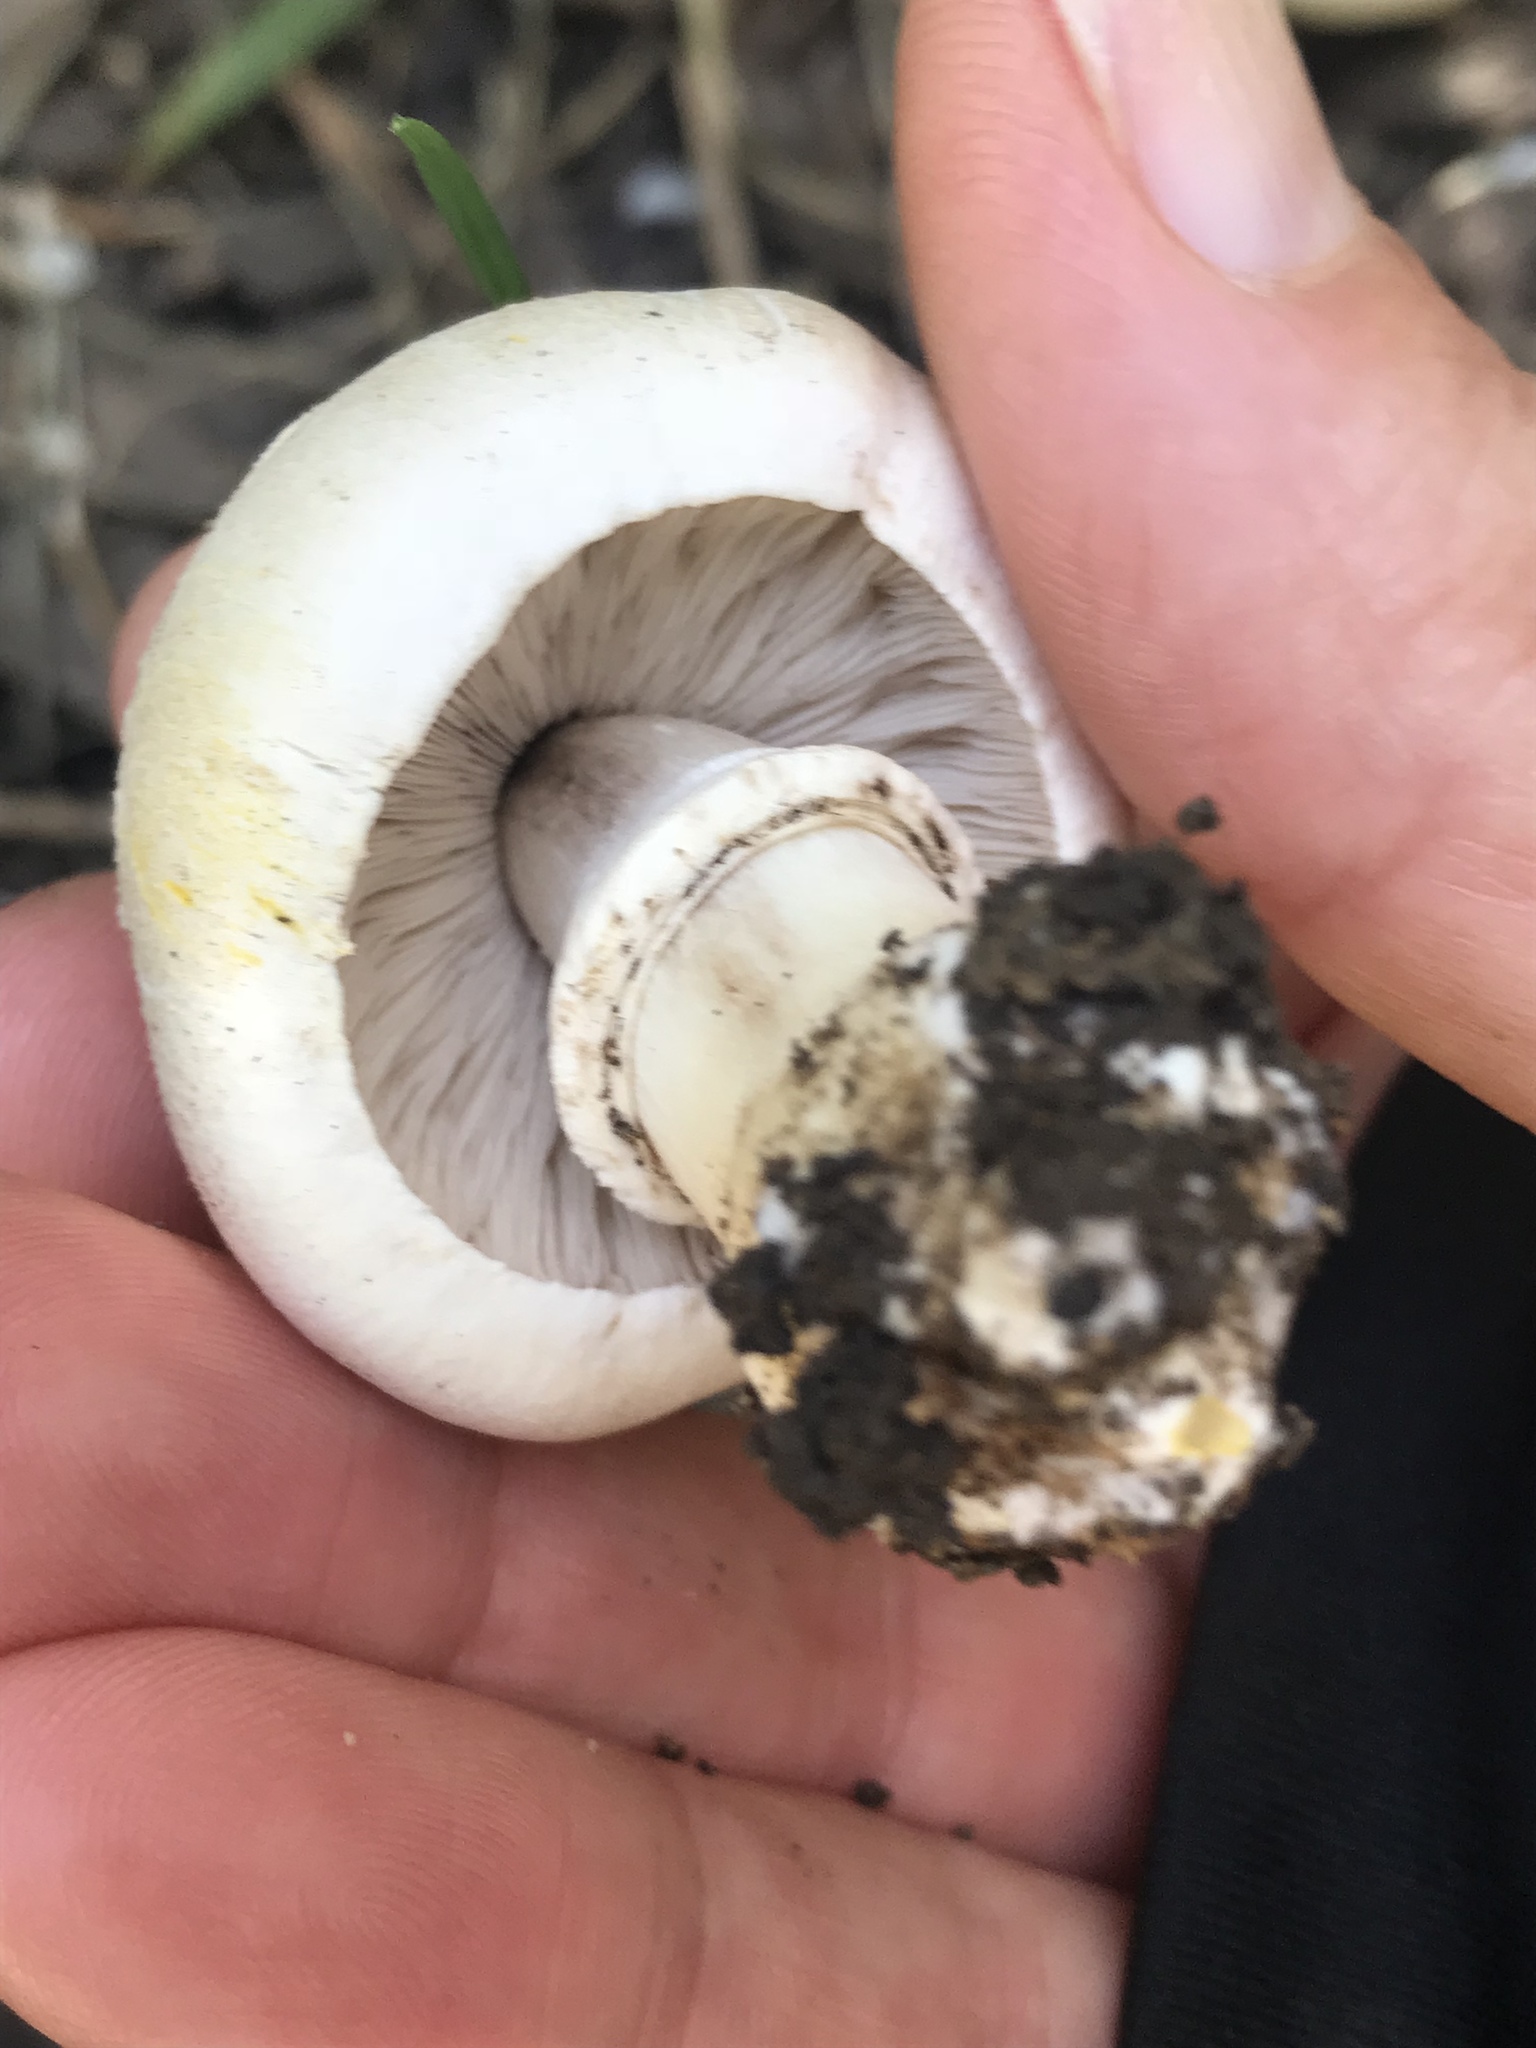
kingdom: Fungi
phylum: Basidiomycota
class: Agaricomycetes
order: Agaricales
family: Agaricaceae
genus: Agaricus
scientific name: Agaricus xanthodermus
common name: Yellow stainer
